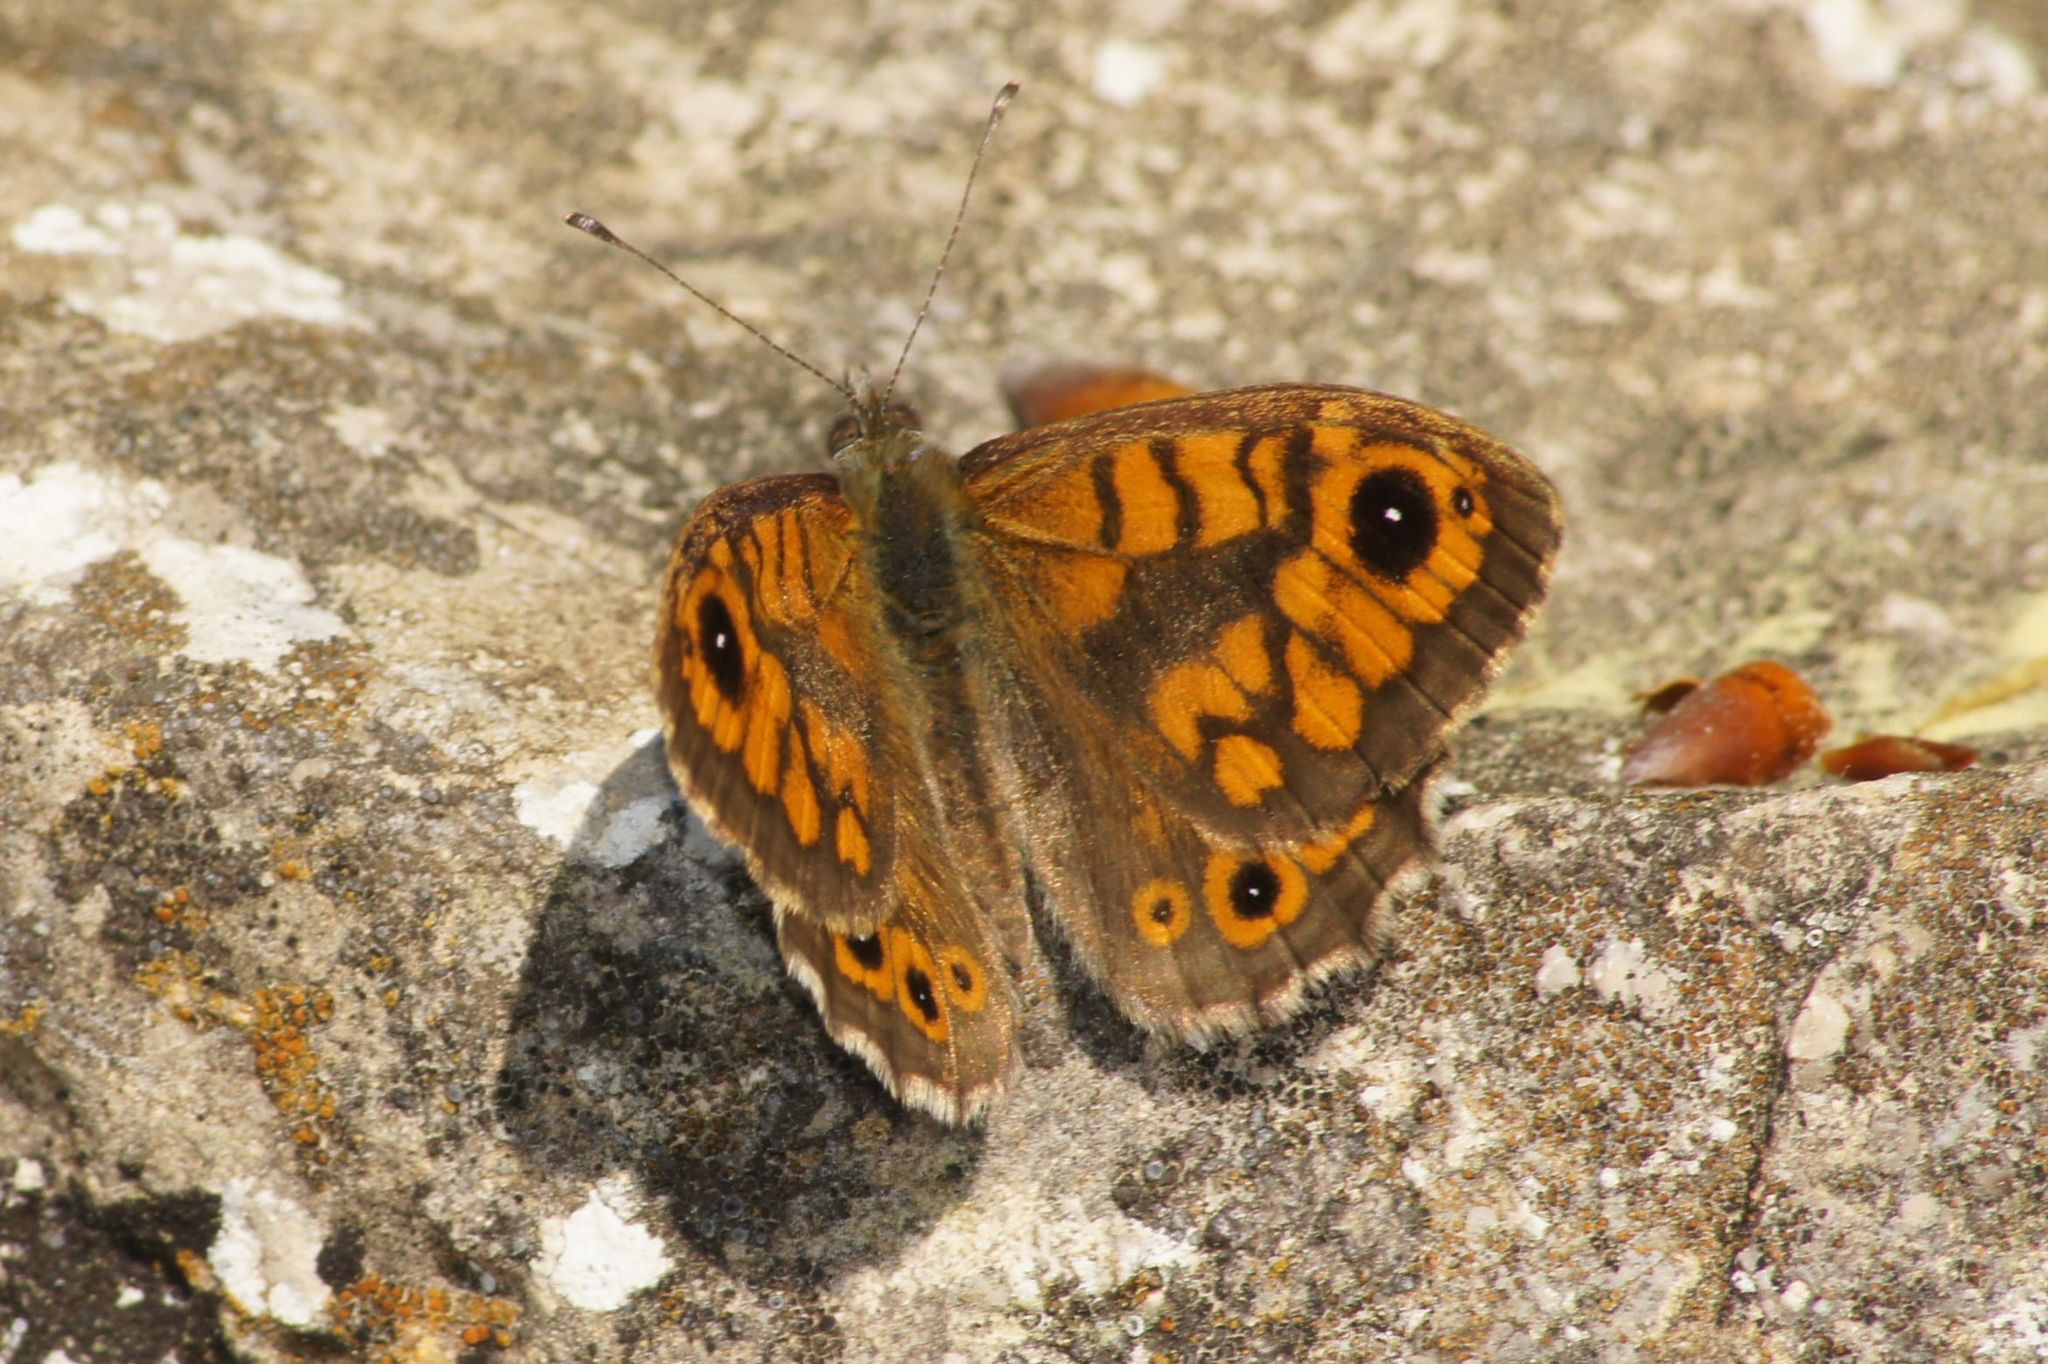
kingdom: Animalia
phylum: Arthropoda
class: Insecta
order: Lepidoptera
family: Nymphalidae
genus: Pararge
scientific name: Pararge Lasiommata megera
